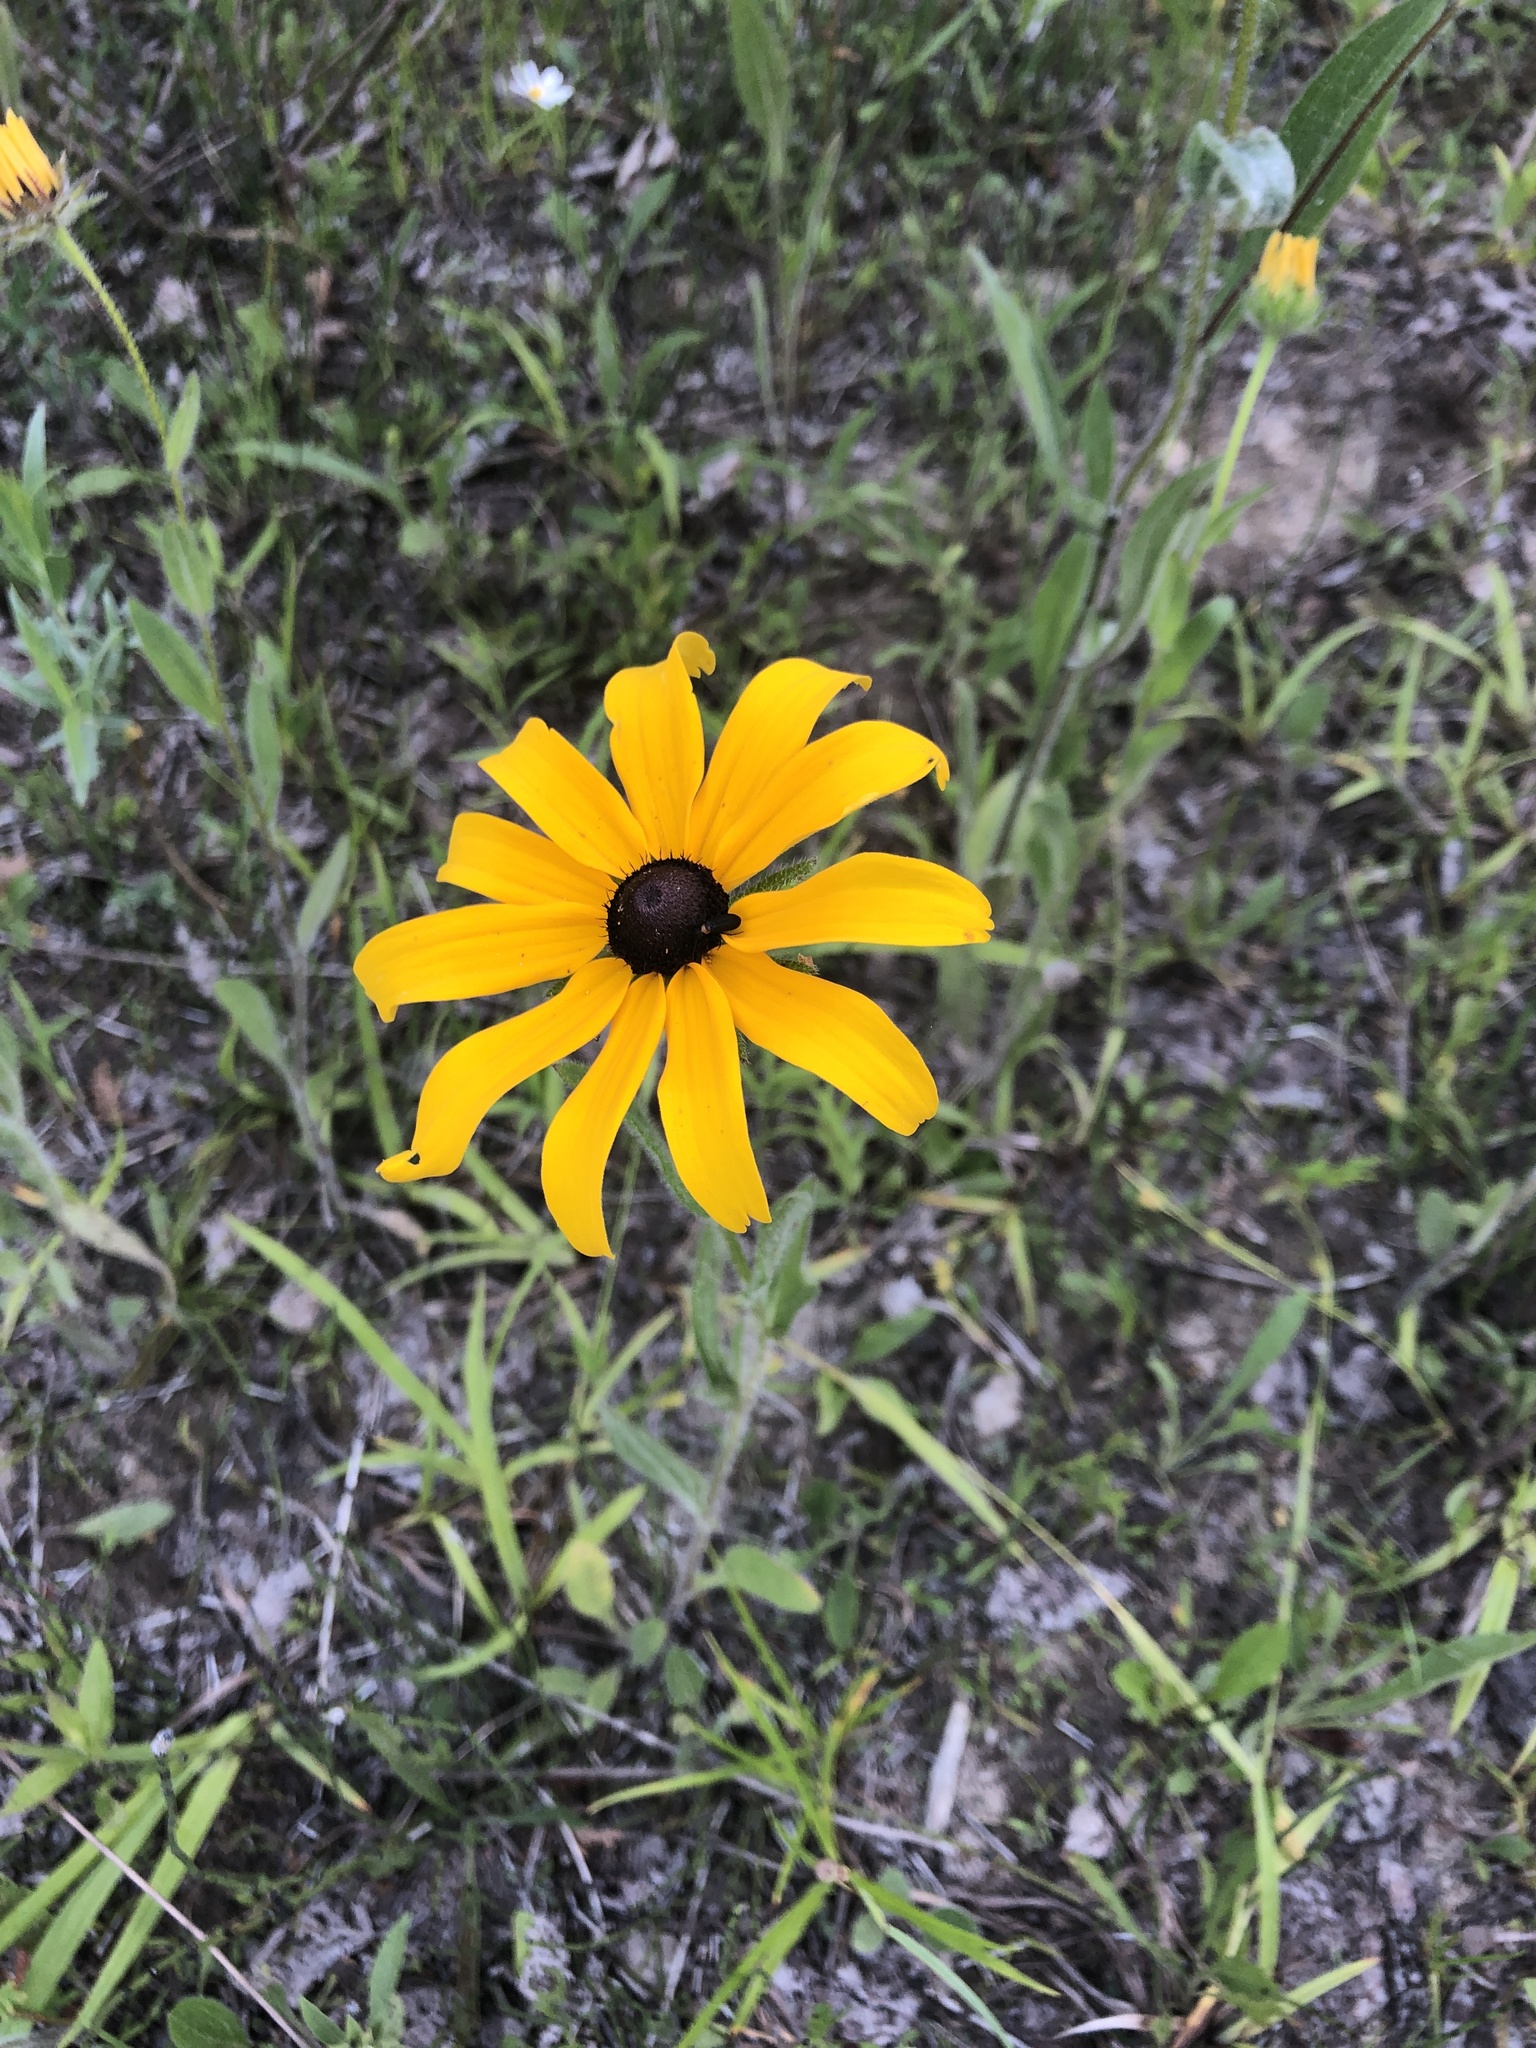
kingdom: Plantae
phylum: Tracheophyta
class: Magnoliopsida
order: Asterales
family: Asteraceae
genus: Rudbeckia
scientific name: Rudbeckia hirta
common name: Black-eyed-susan
